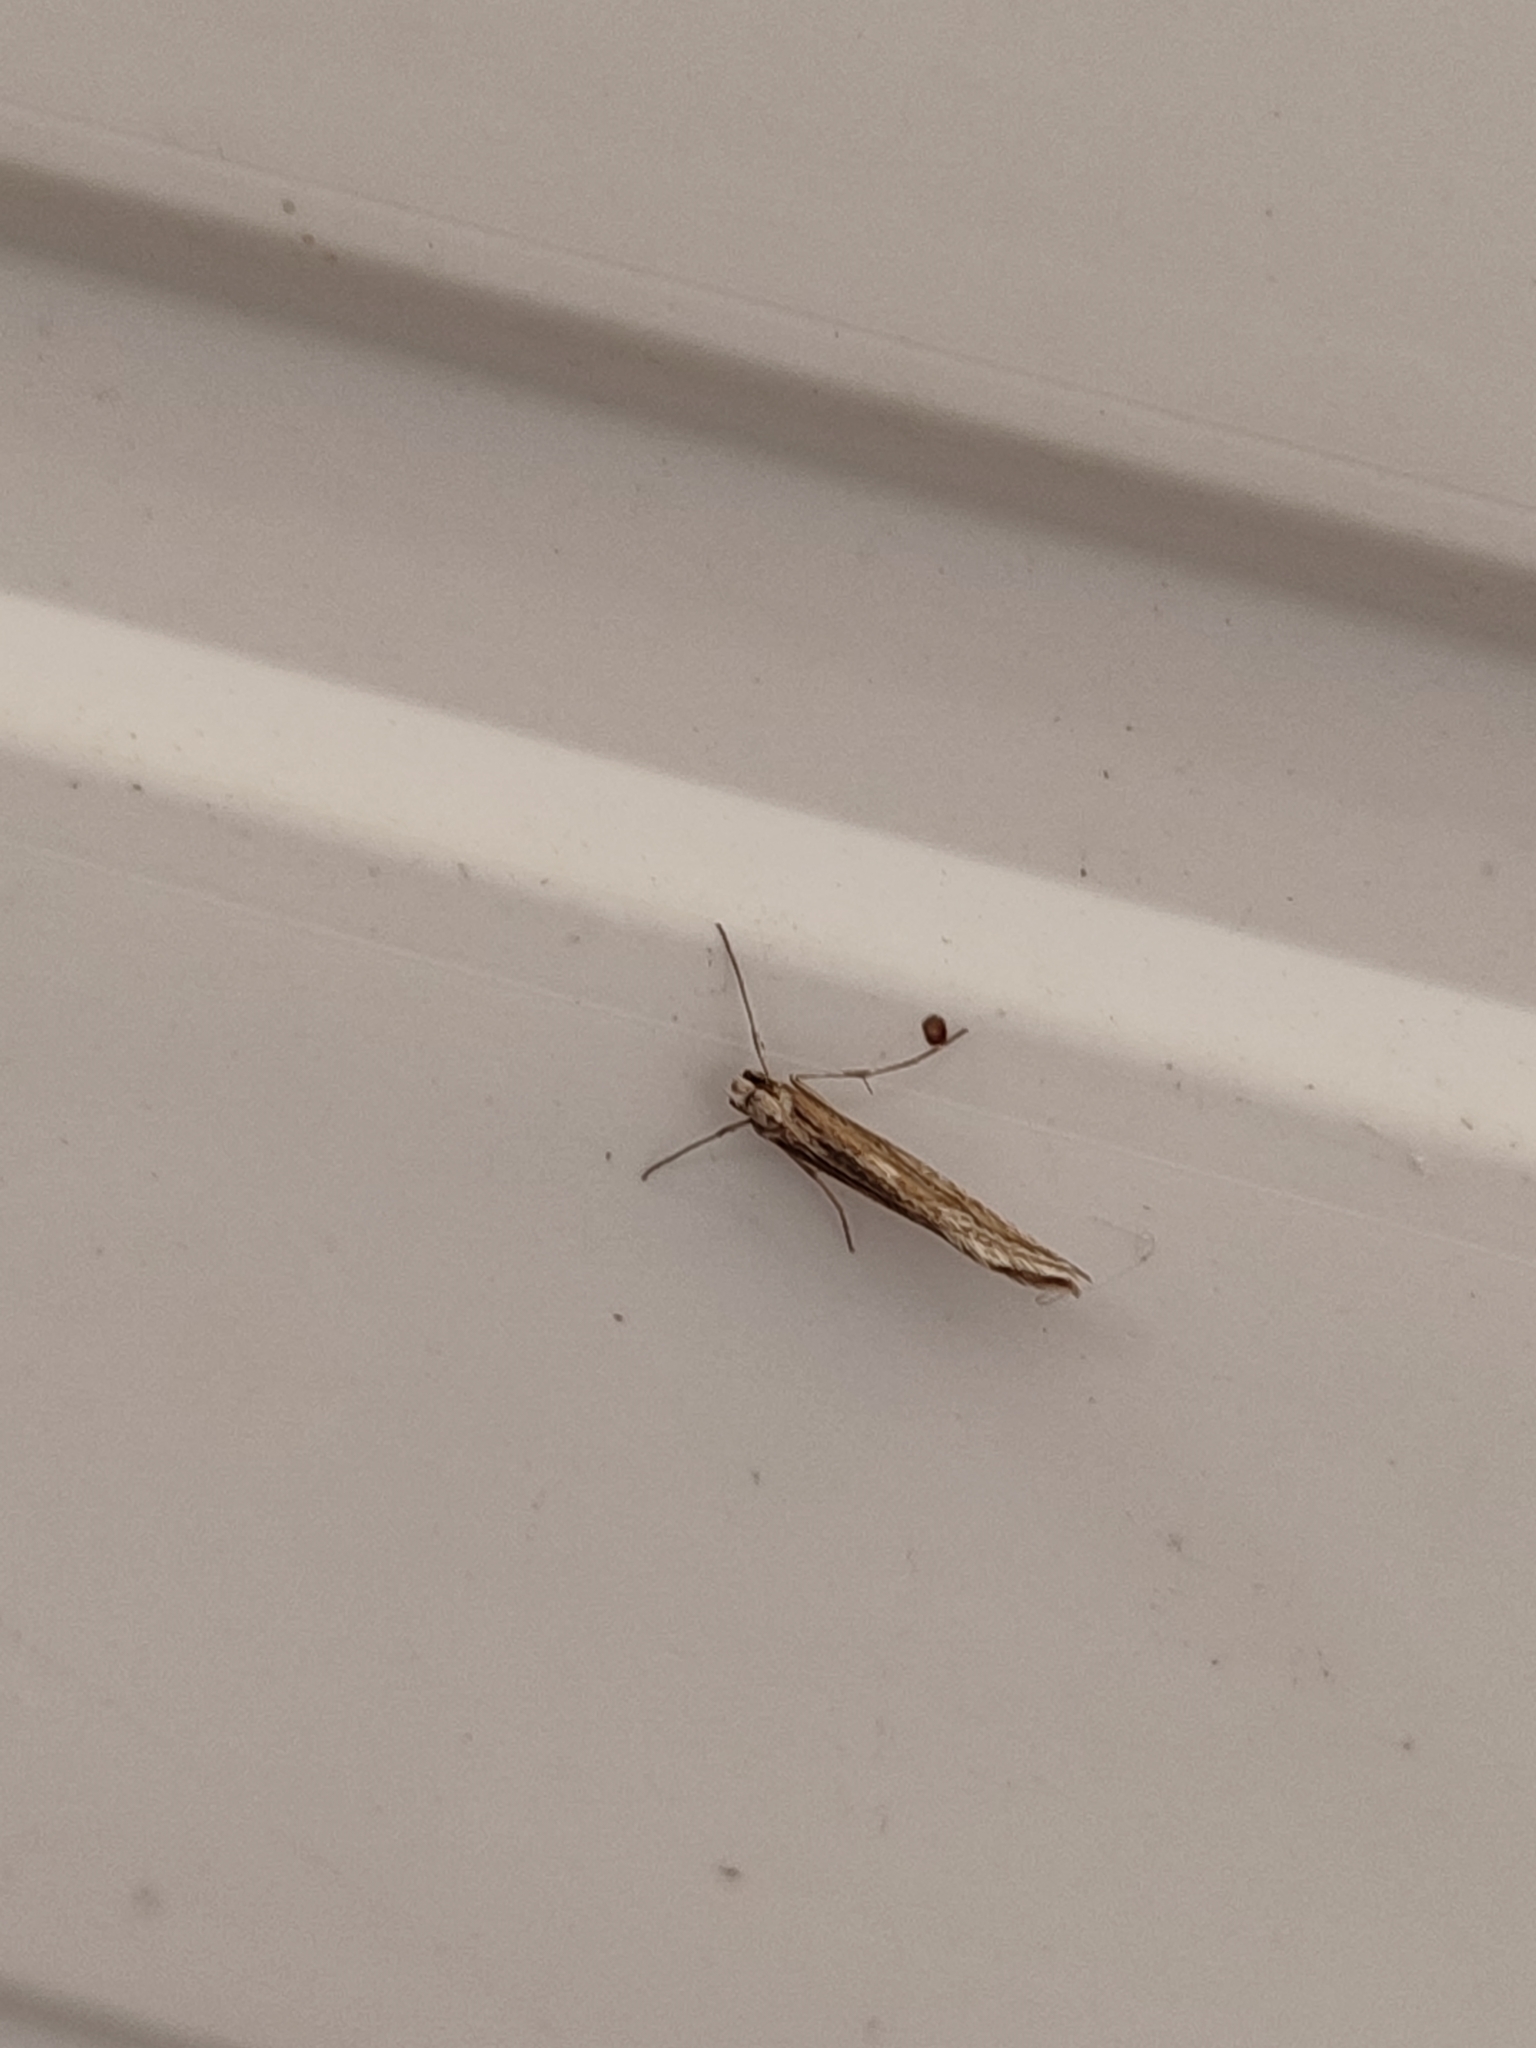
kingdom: Animalia
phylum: Arthropoda
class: Insecta
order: Lepidoptera
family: Eriocottidae
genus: Deuterotinea
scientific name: Deuterotinea casanella
